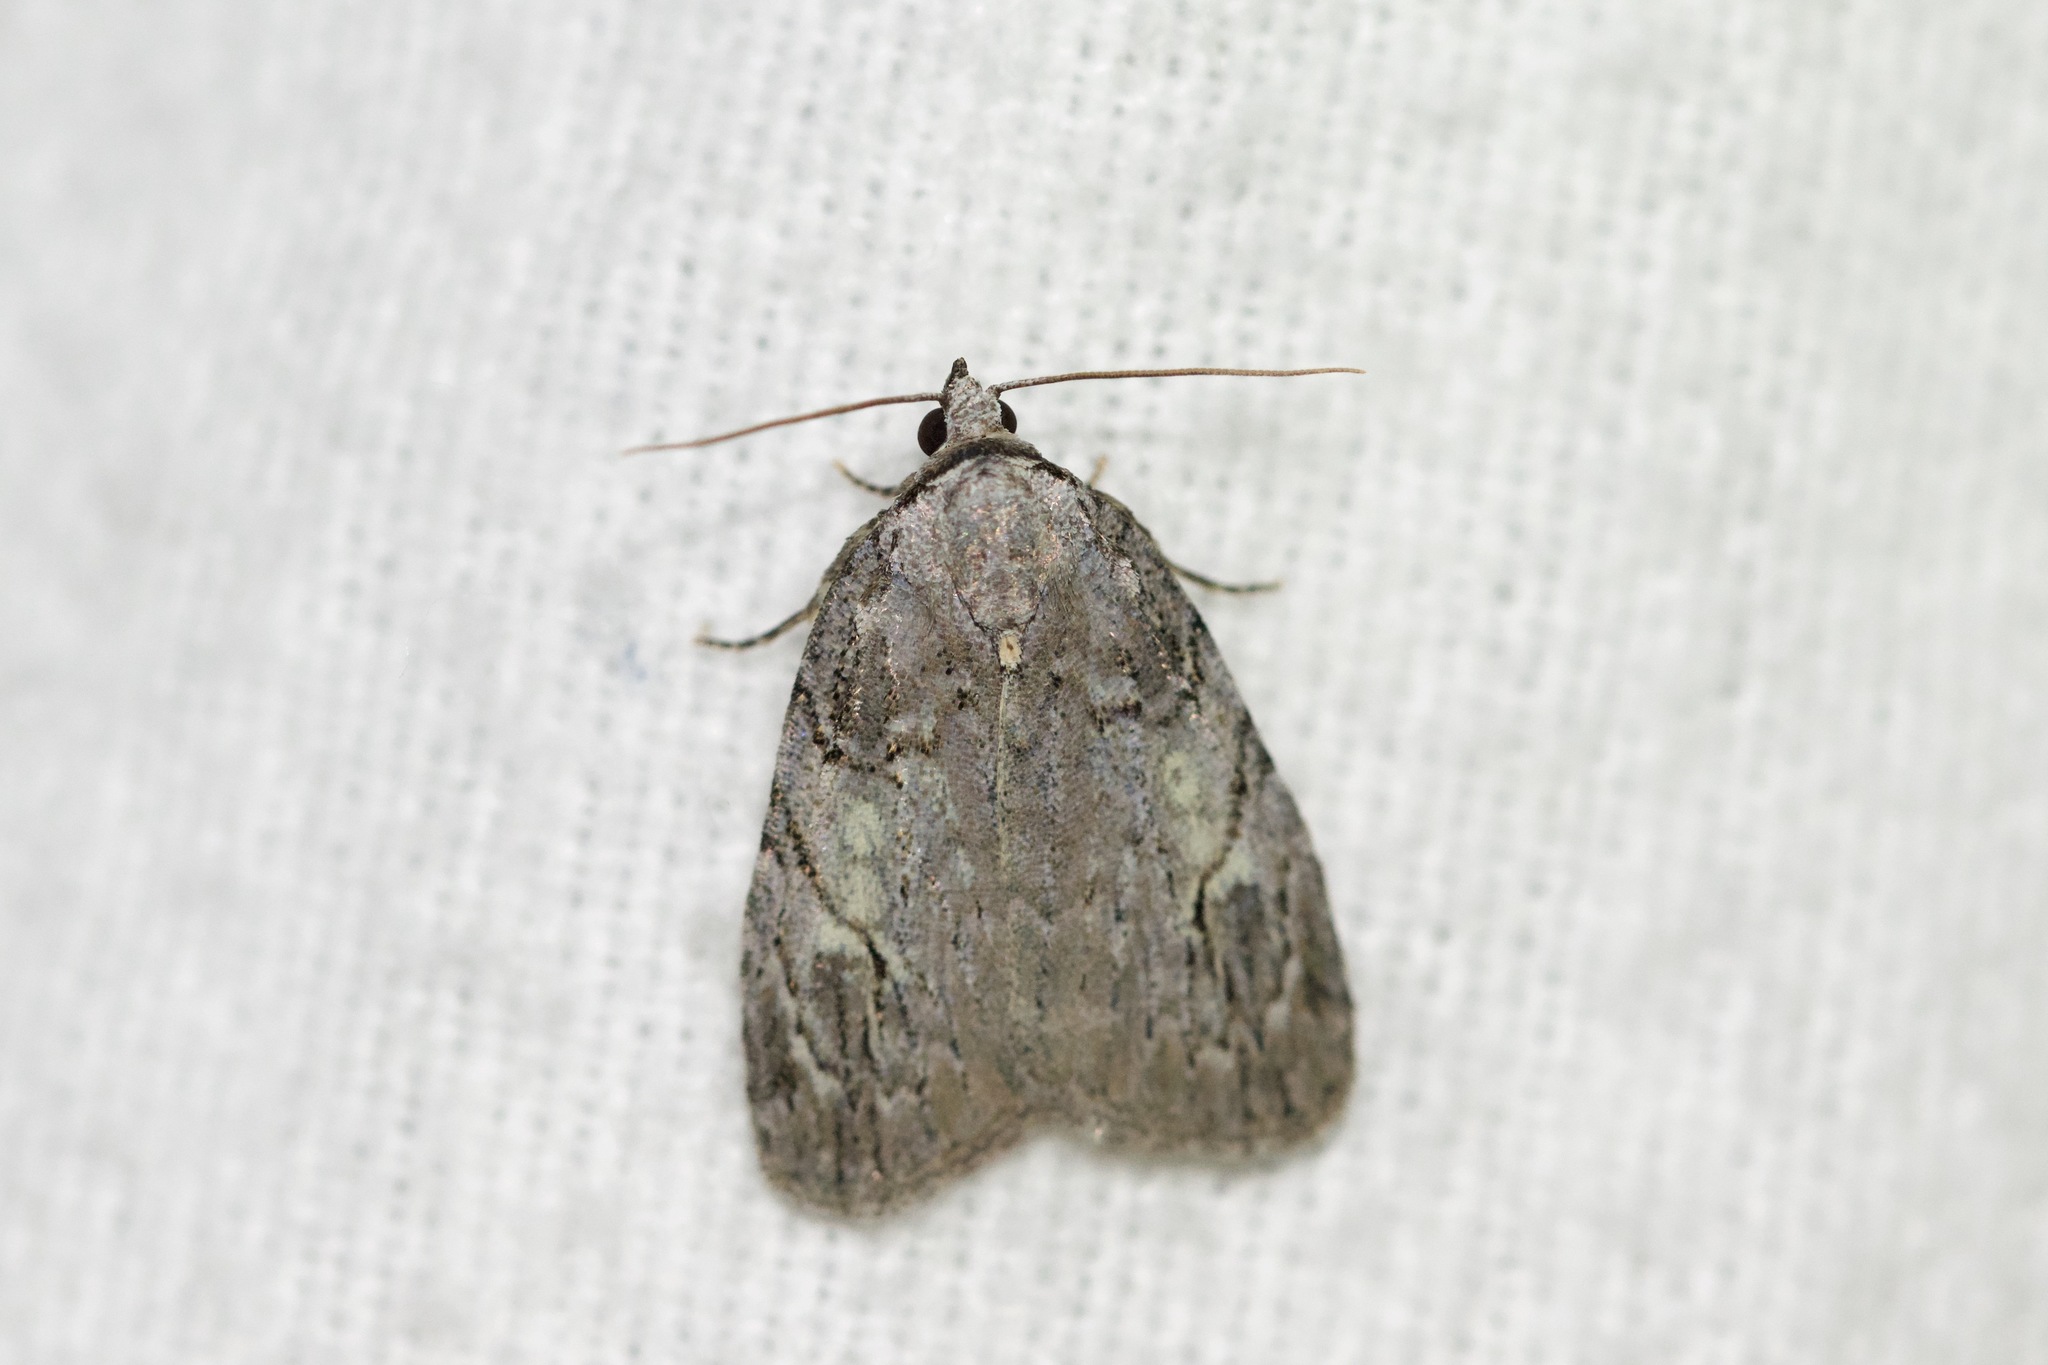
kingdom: Animalia
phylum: Arthropoda
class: Insecta
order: Lepidoptera
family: Noctuidae
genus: Balsa
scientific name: Balsa labecula
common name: White-blotched balsa moth
